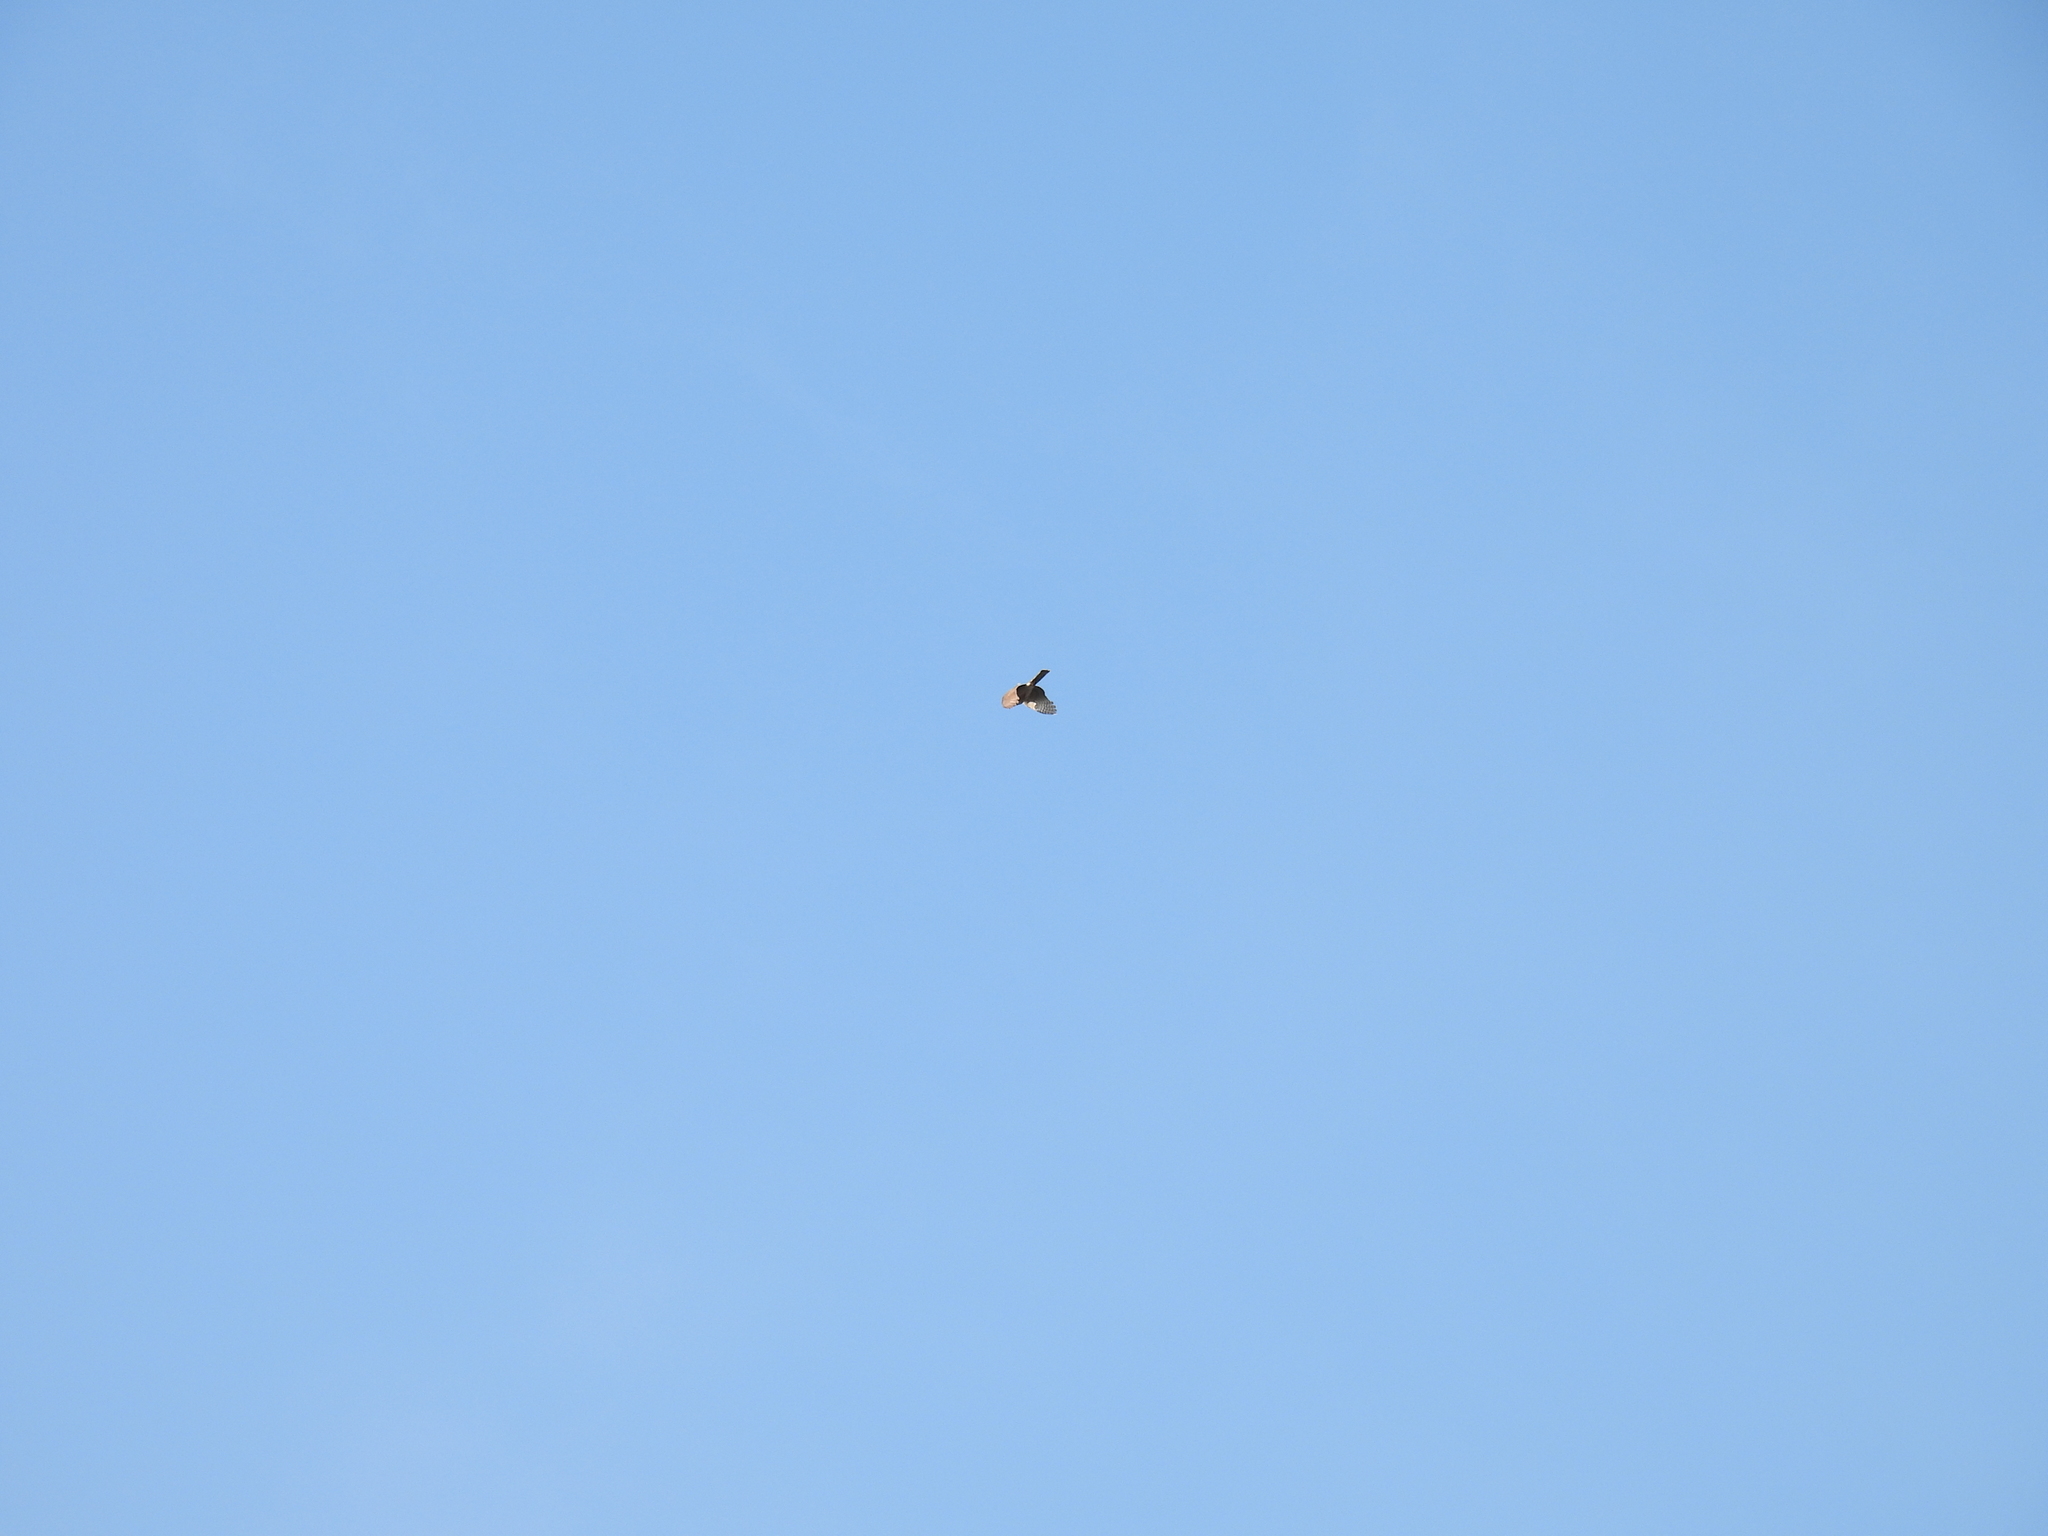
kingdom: Animalia
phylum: Chordata
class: Aves
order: Accipitriformes
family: Accipitridae
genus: Accipiter
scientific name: Accipiter striatus
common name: Sharp-shinned hawk
